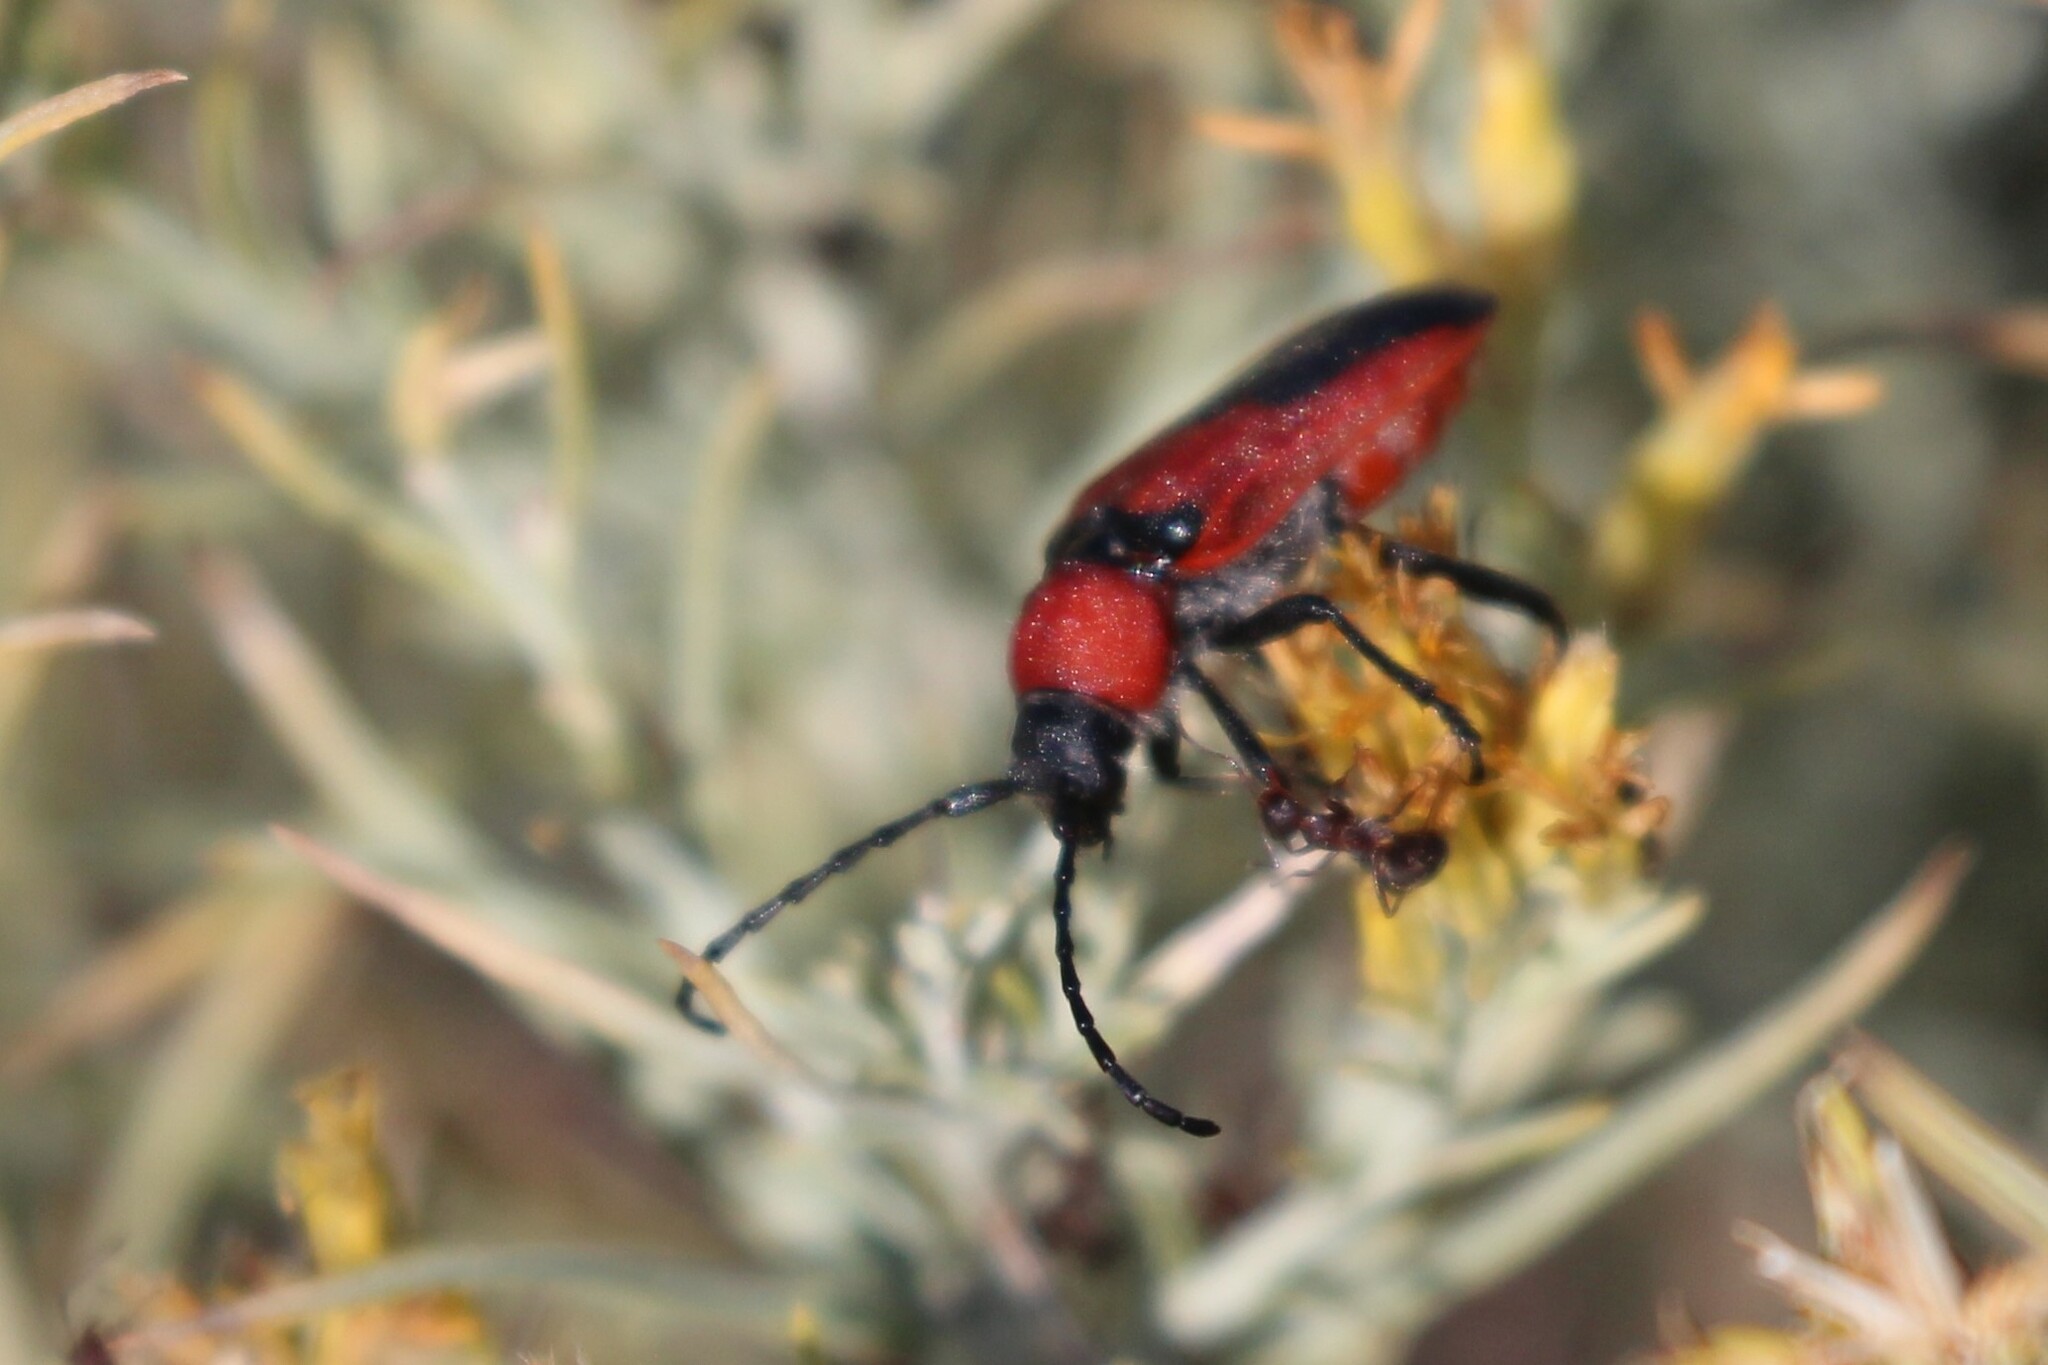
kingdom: Animalia
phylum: Arthropoda
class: Insecta
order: Coleoptera
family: Cerambycidae
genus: Crossidius
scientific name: Crossidius coralinus
